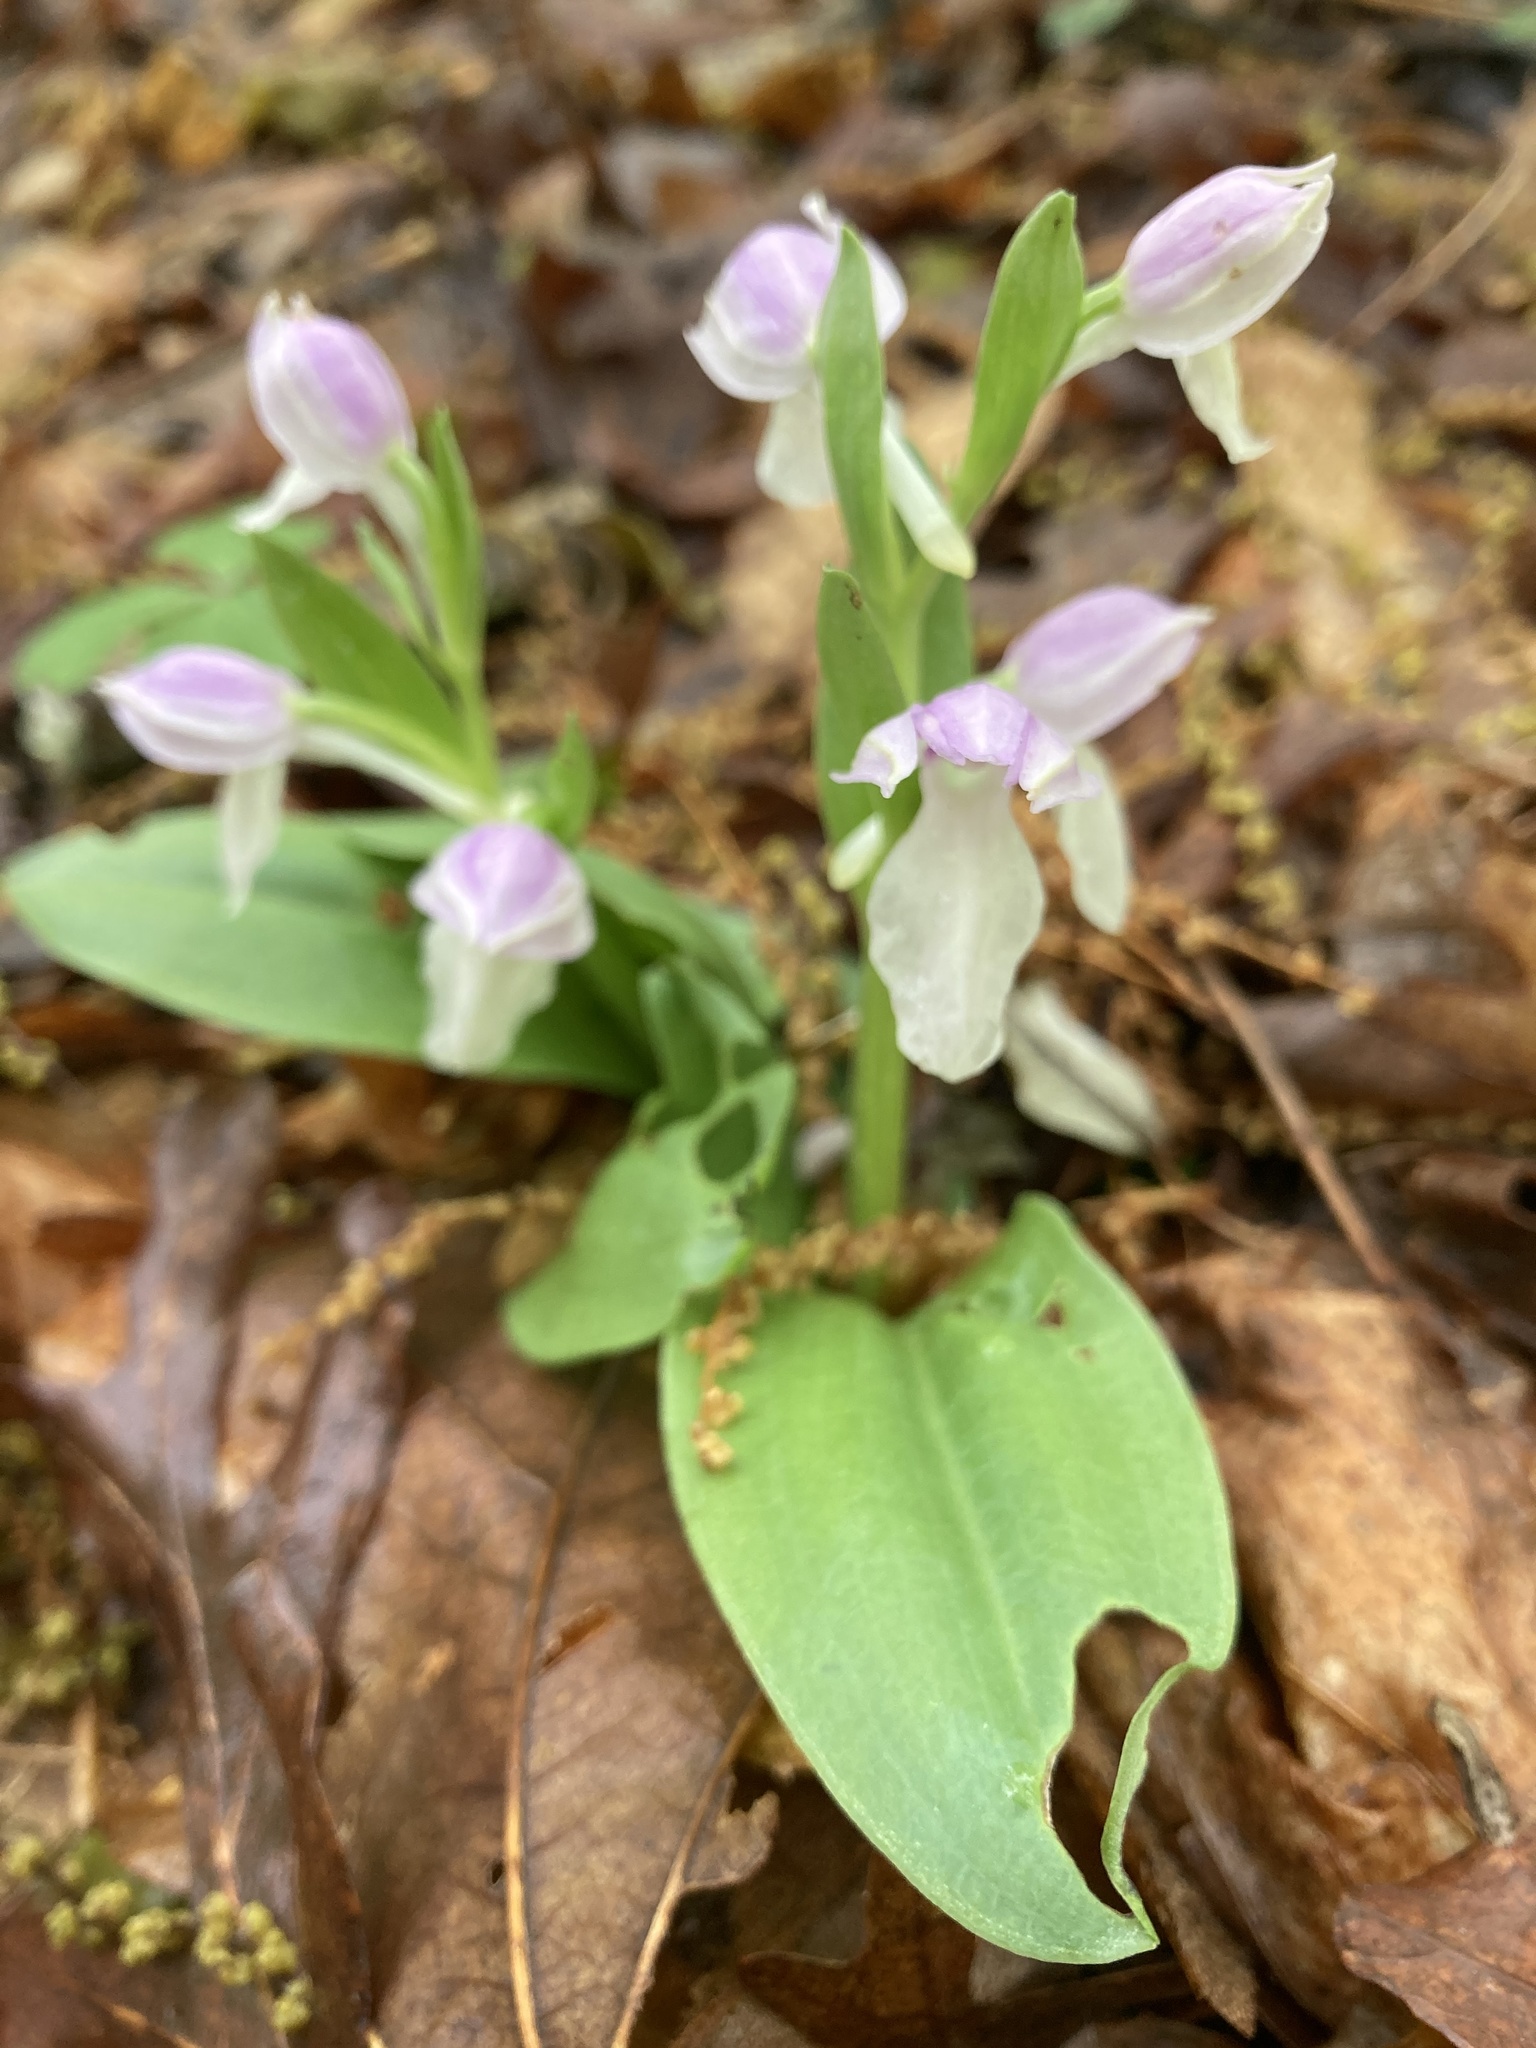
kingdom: Plantae
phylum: Tracheophyta
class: Liliopsida
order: Asparagales
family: Orchidaceae
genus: Galearis
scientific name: Galearis spectabilis
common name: Purple-hooded orchis
